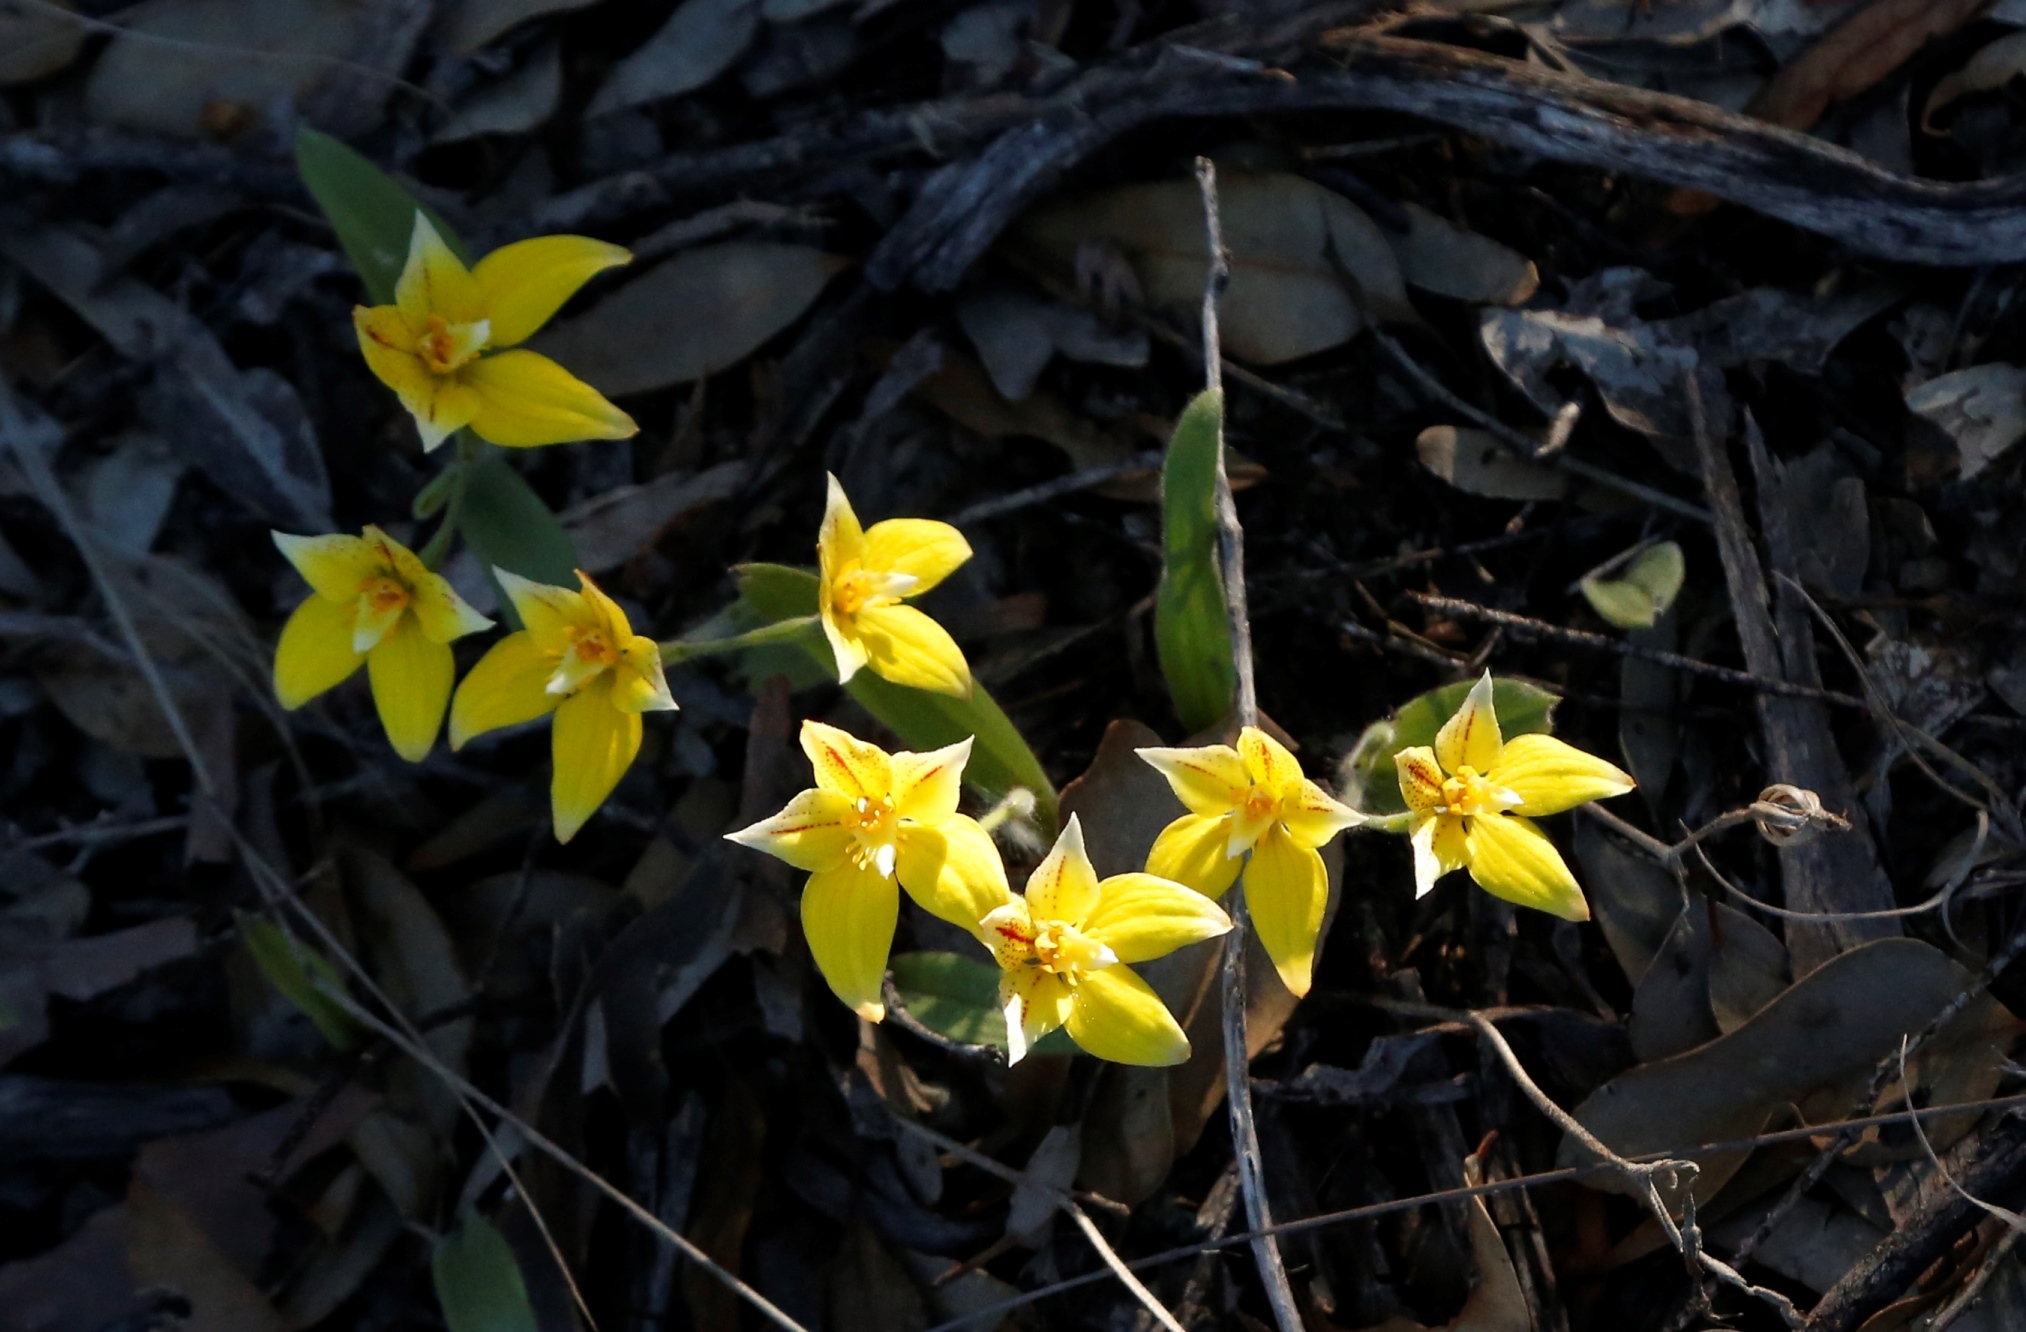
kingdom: Plantae
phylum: Tracheophyta
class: Liliopsida
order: Asparagales
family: Orchidaceae
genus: Caladenia
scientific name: Caladenia flava
